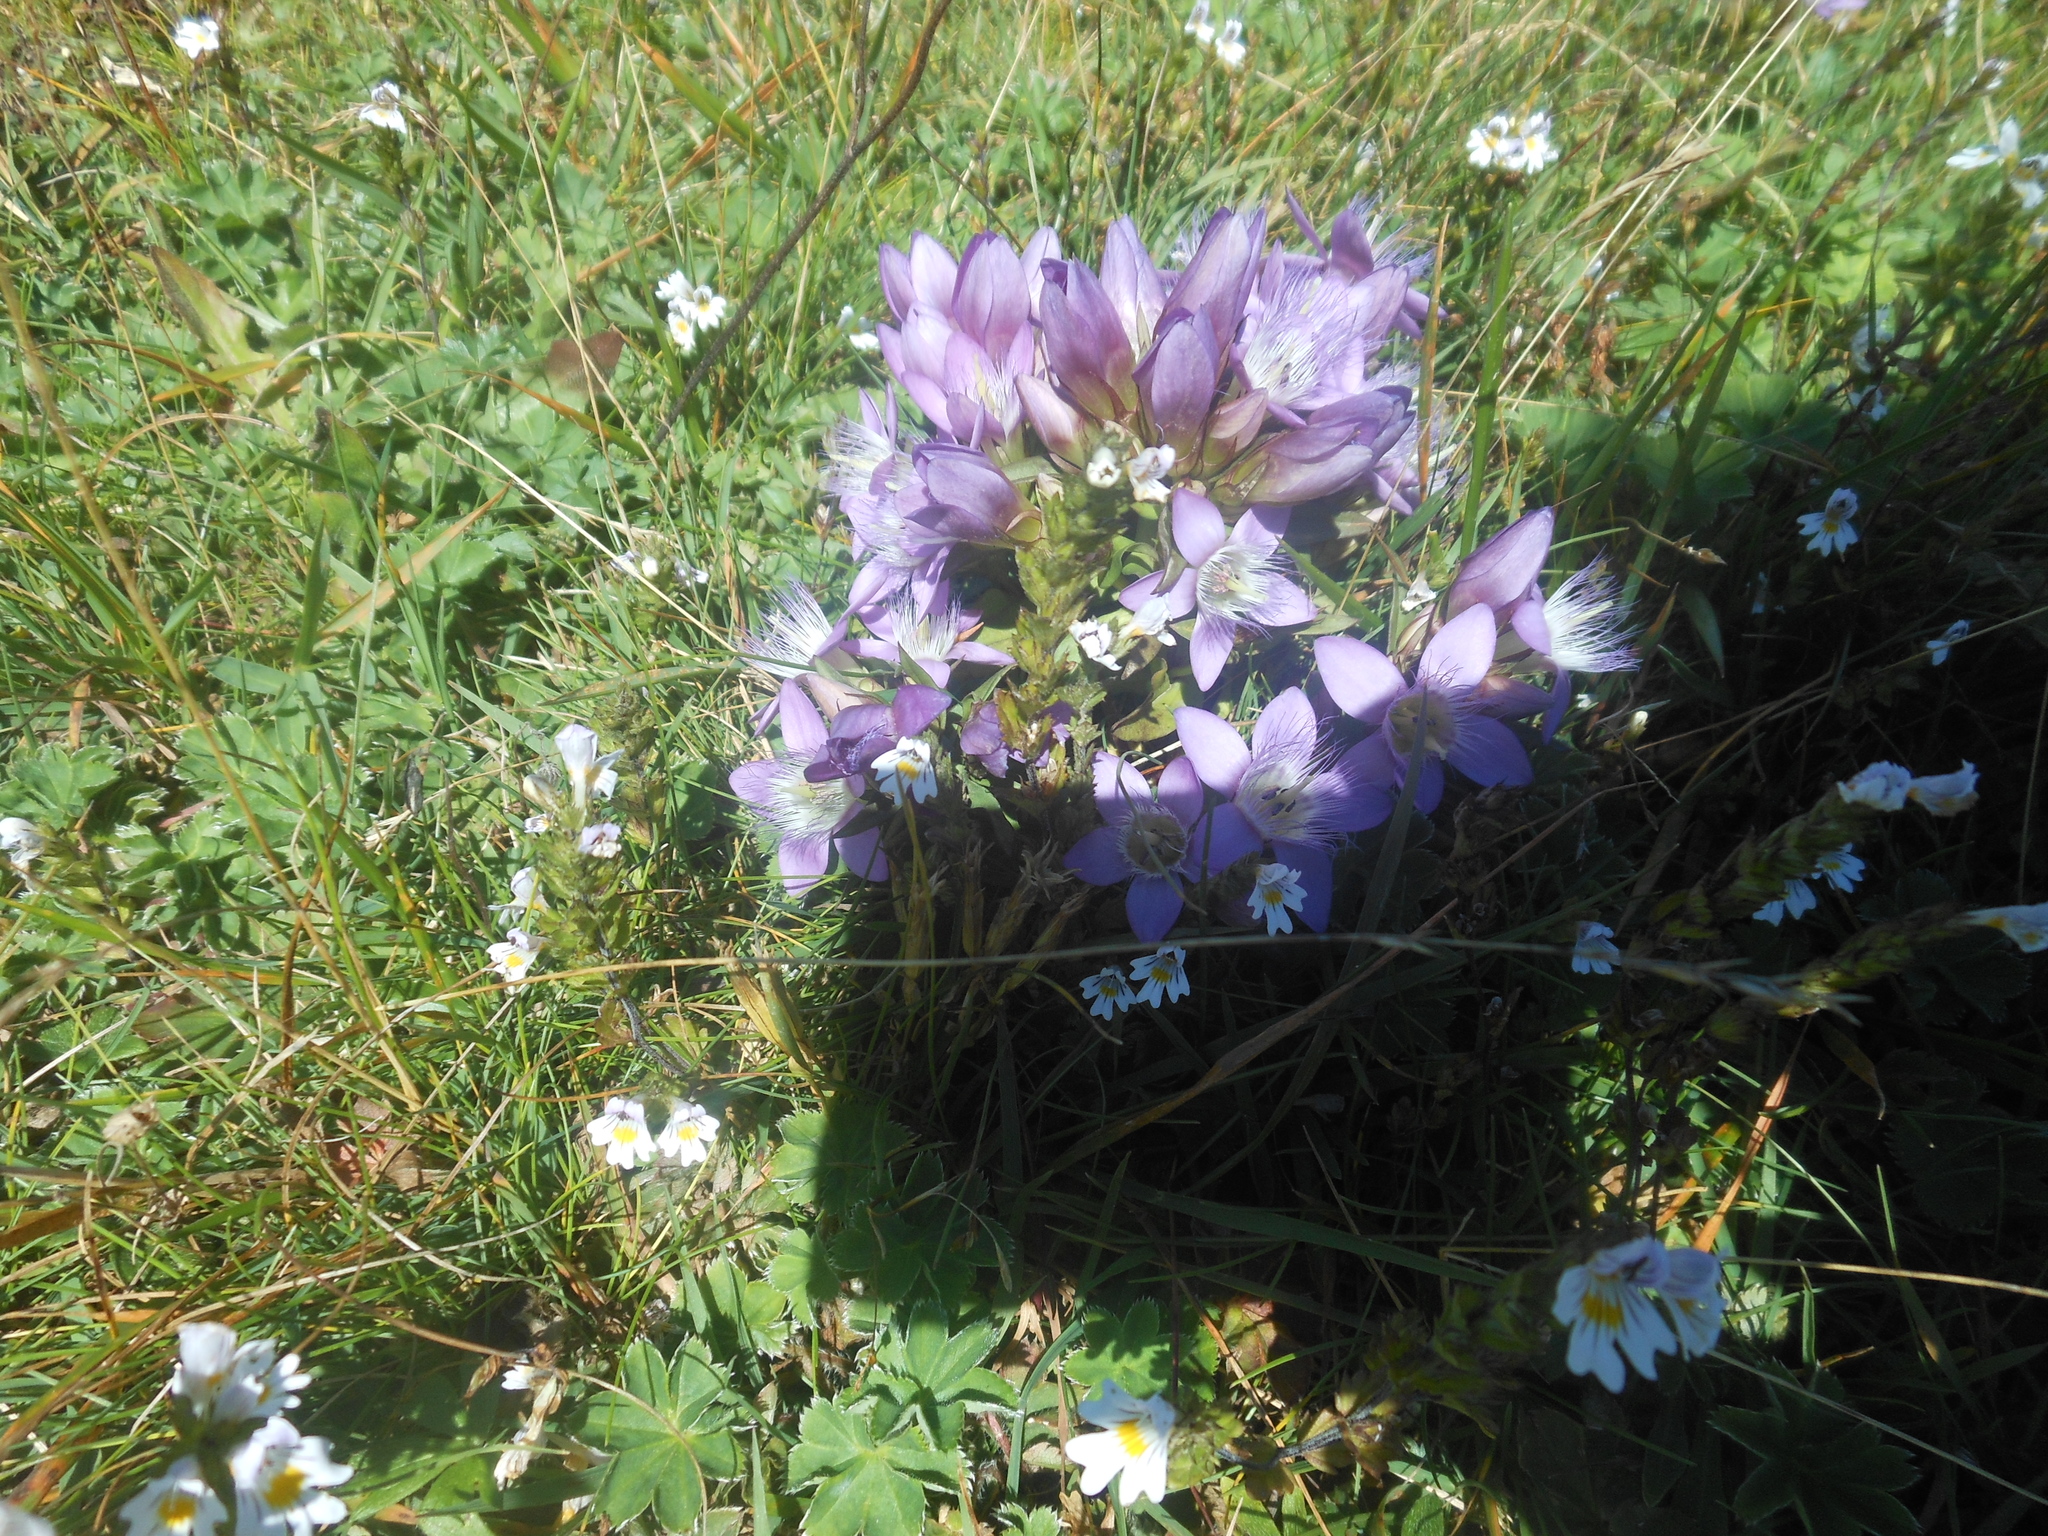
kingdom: Plantae
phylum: Tracheophyta
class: Magnoliopsida
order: Gentianales
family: Gentianaceae
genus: Gentianella
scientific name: Gentianella austriaca
